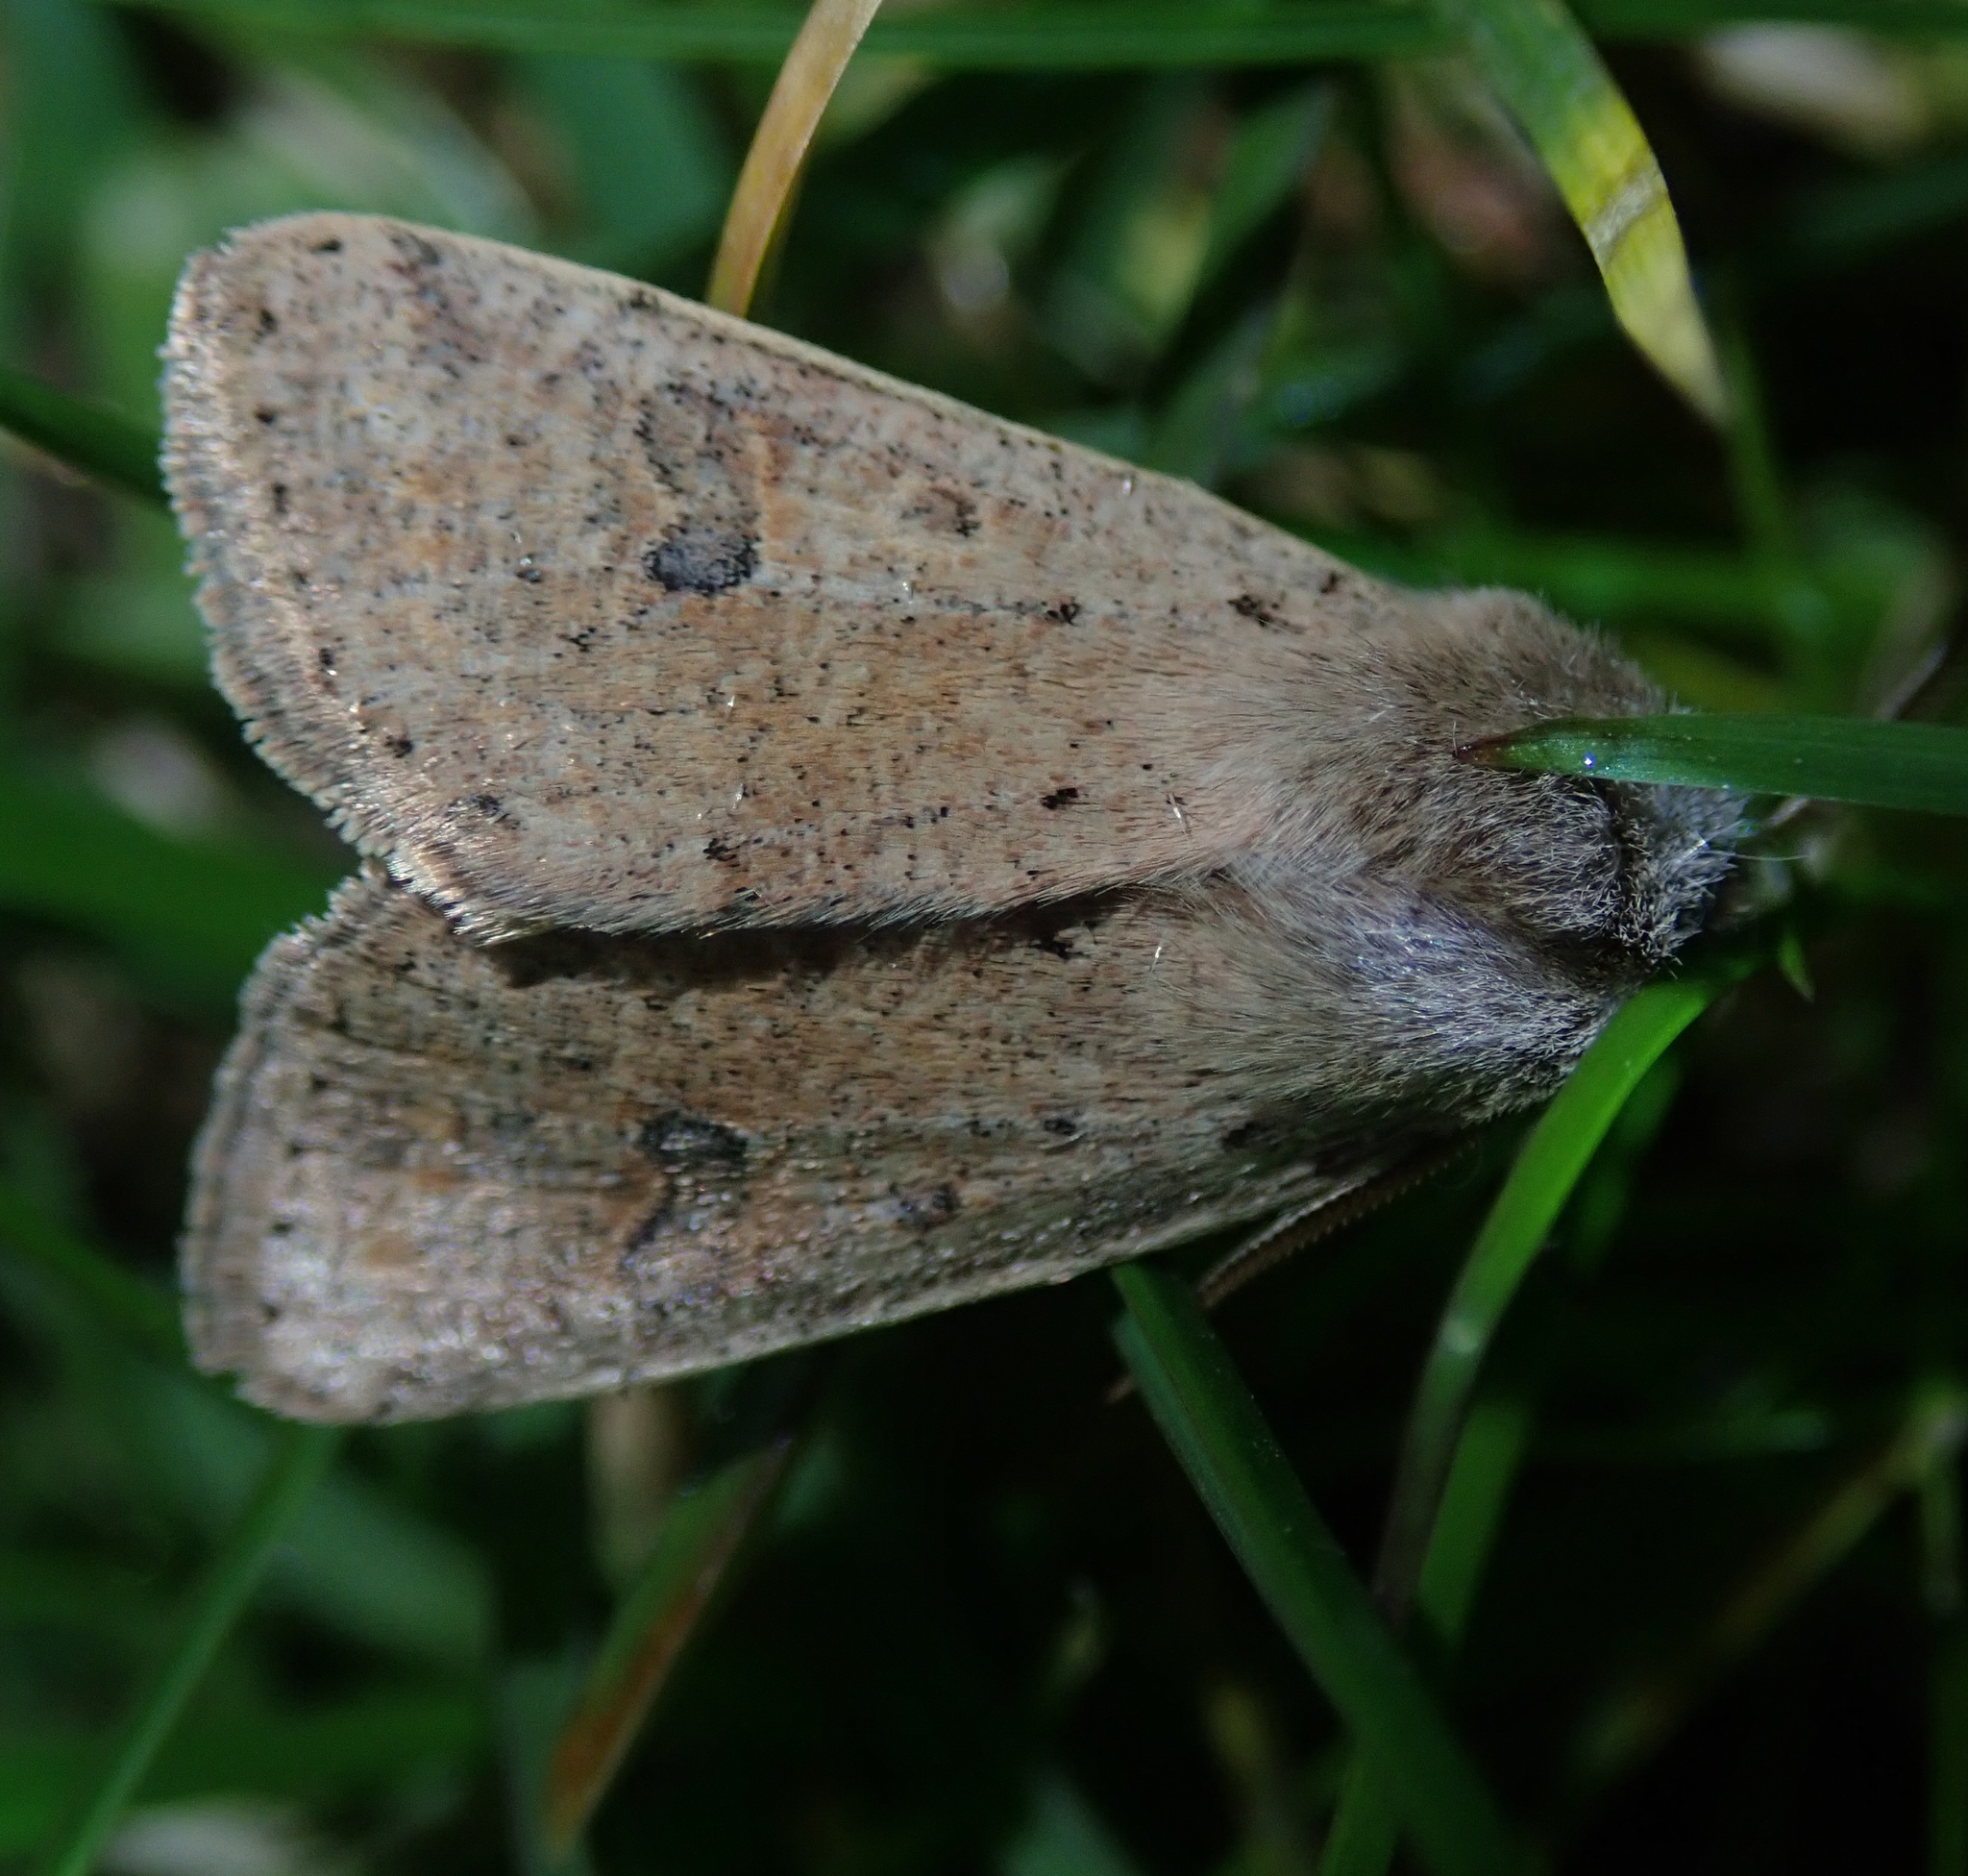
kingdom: Animalia
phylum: Arthropoda
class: Insecta
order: Lepidoptera
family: Noctuidae
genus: Orthosia
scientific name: Orthosia cruda
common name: Small quaker
